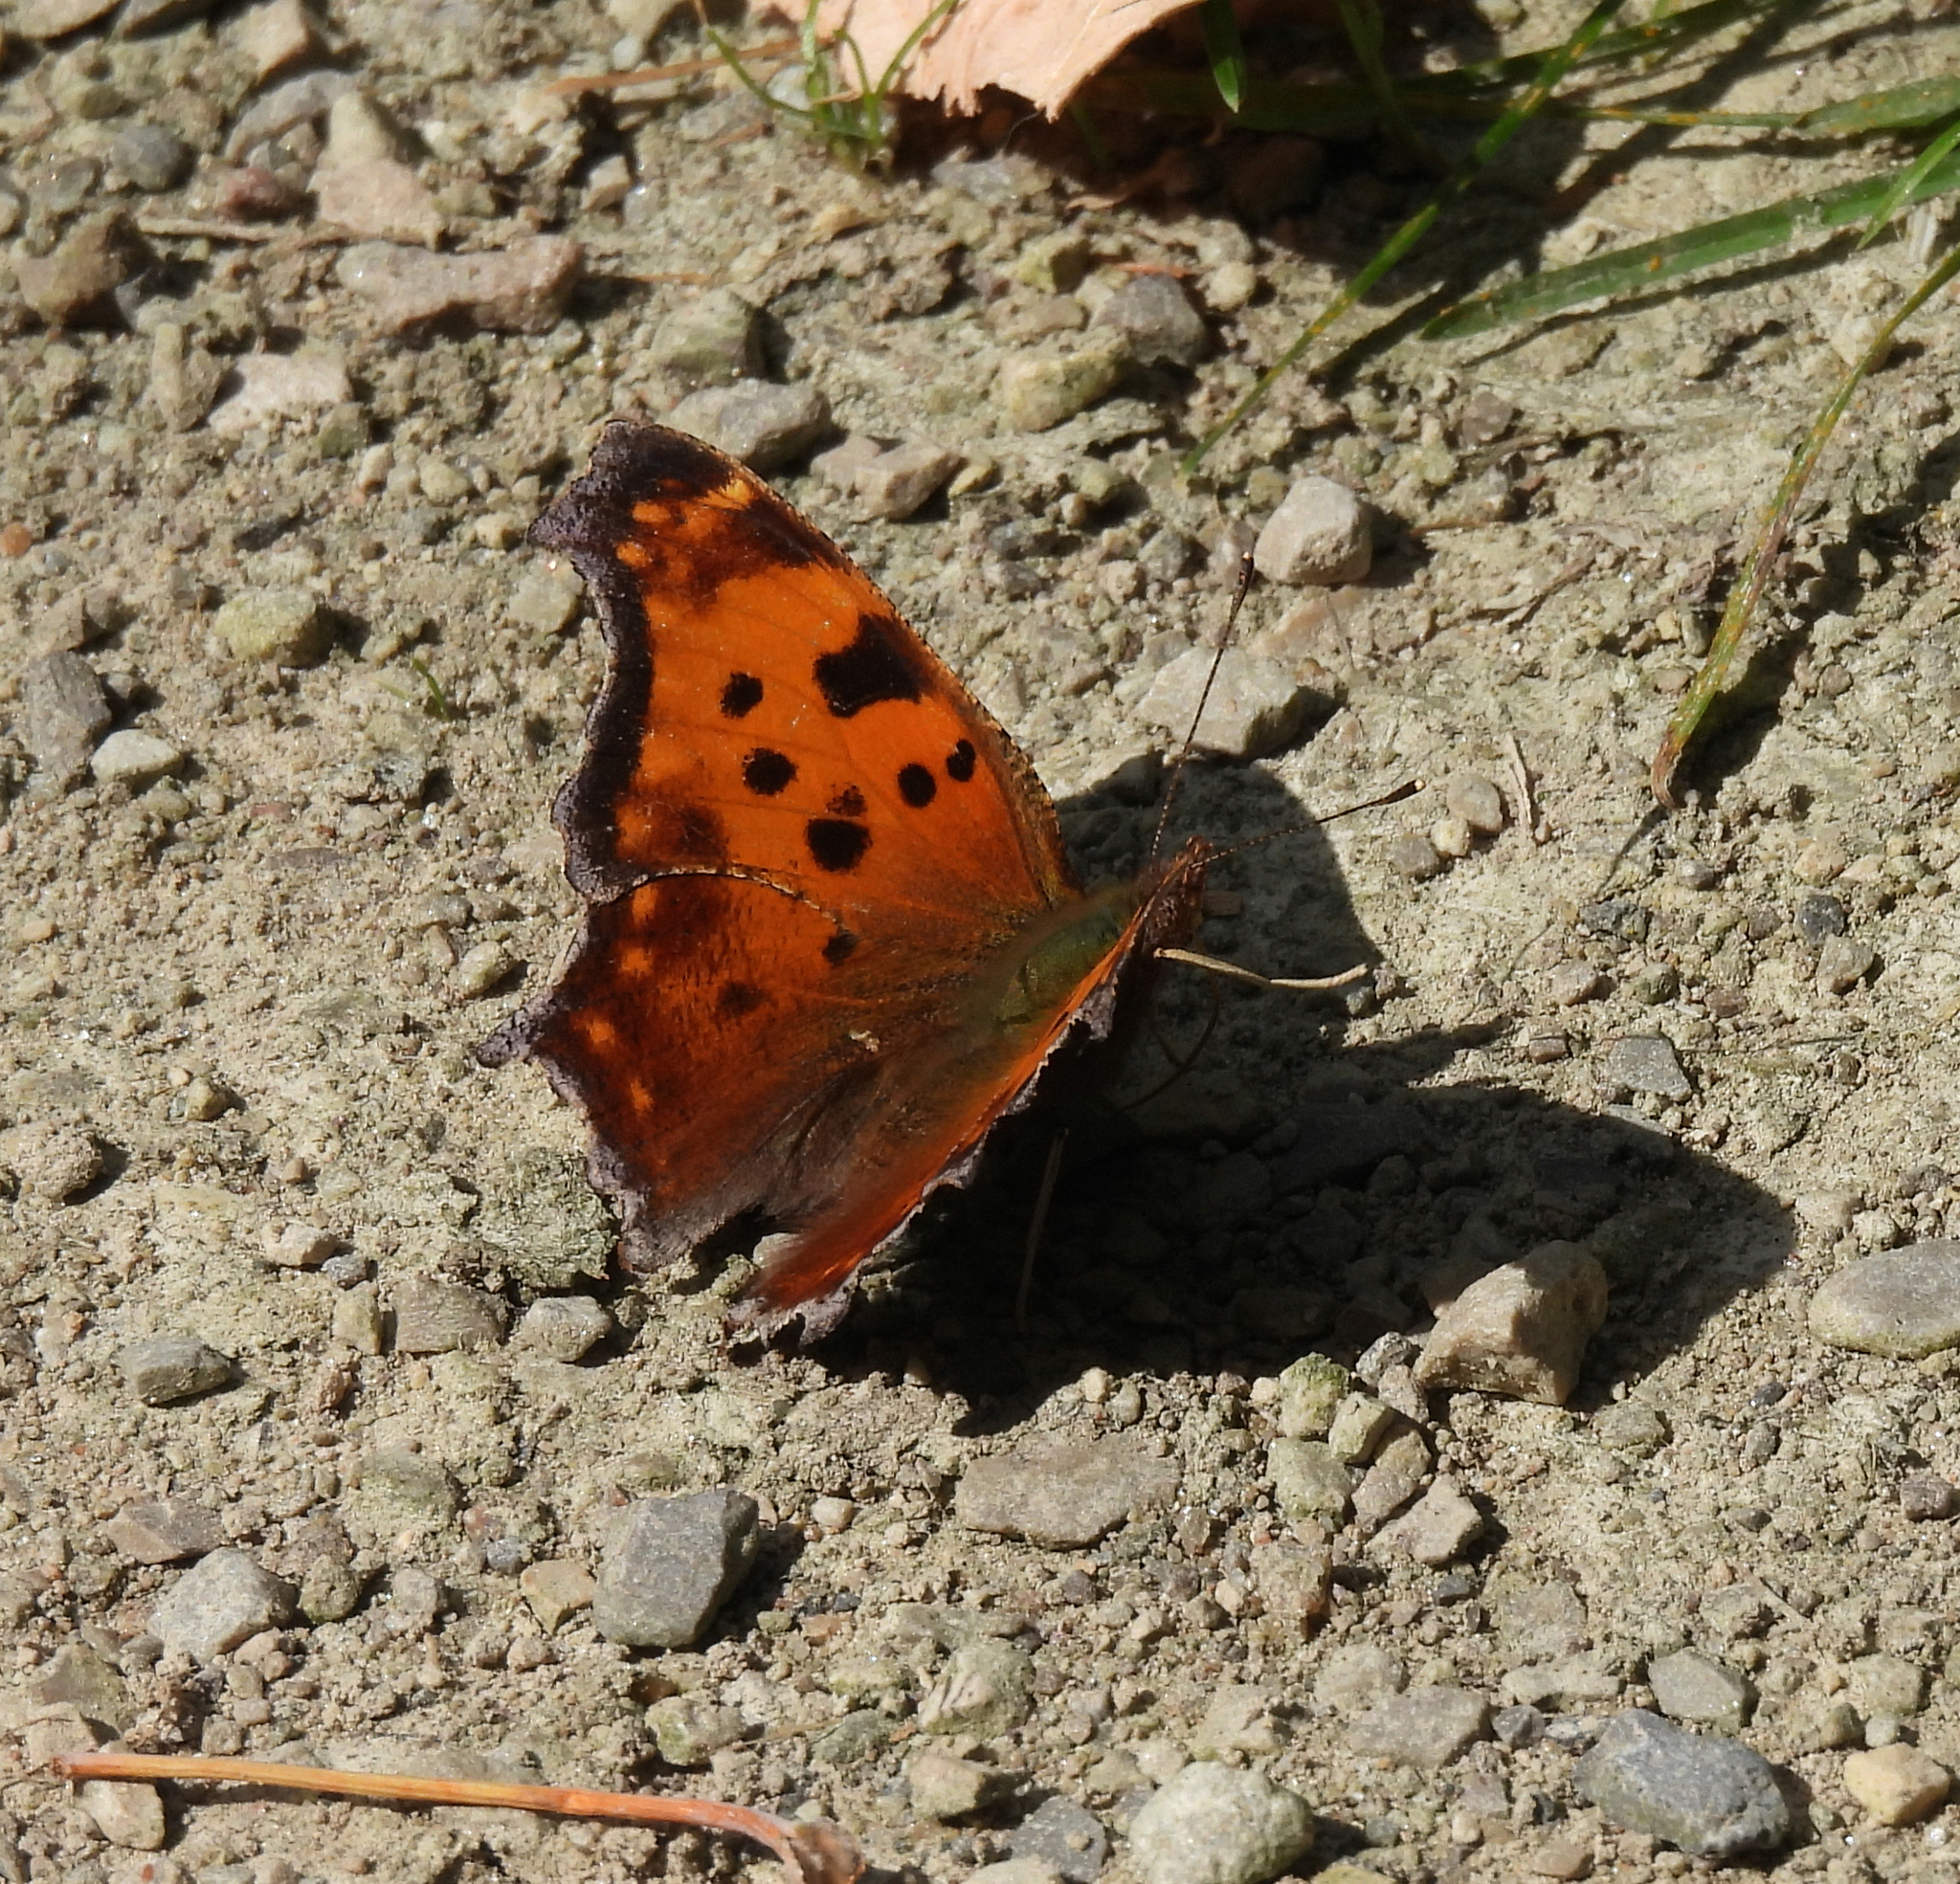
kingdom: Animalia
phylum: Arthropoda
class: Insecta
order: Lepidoptera
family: Nymphalidae
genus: Polygonia
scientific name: Polygonia comma
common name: Eastern comma
